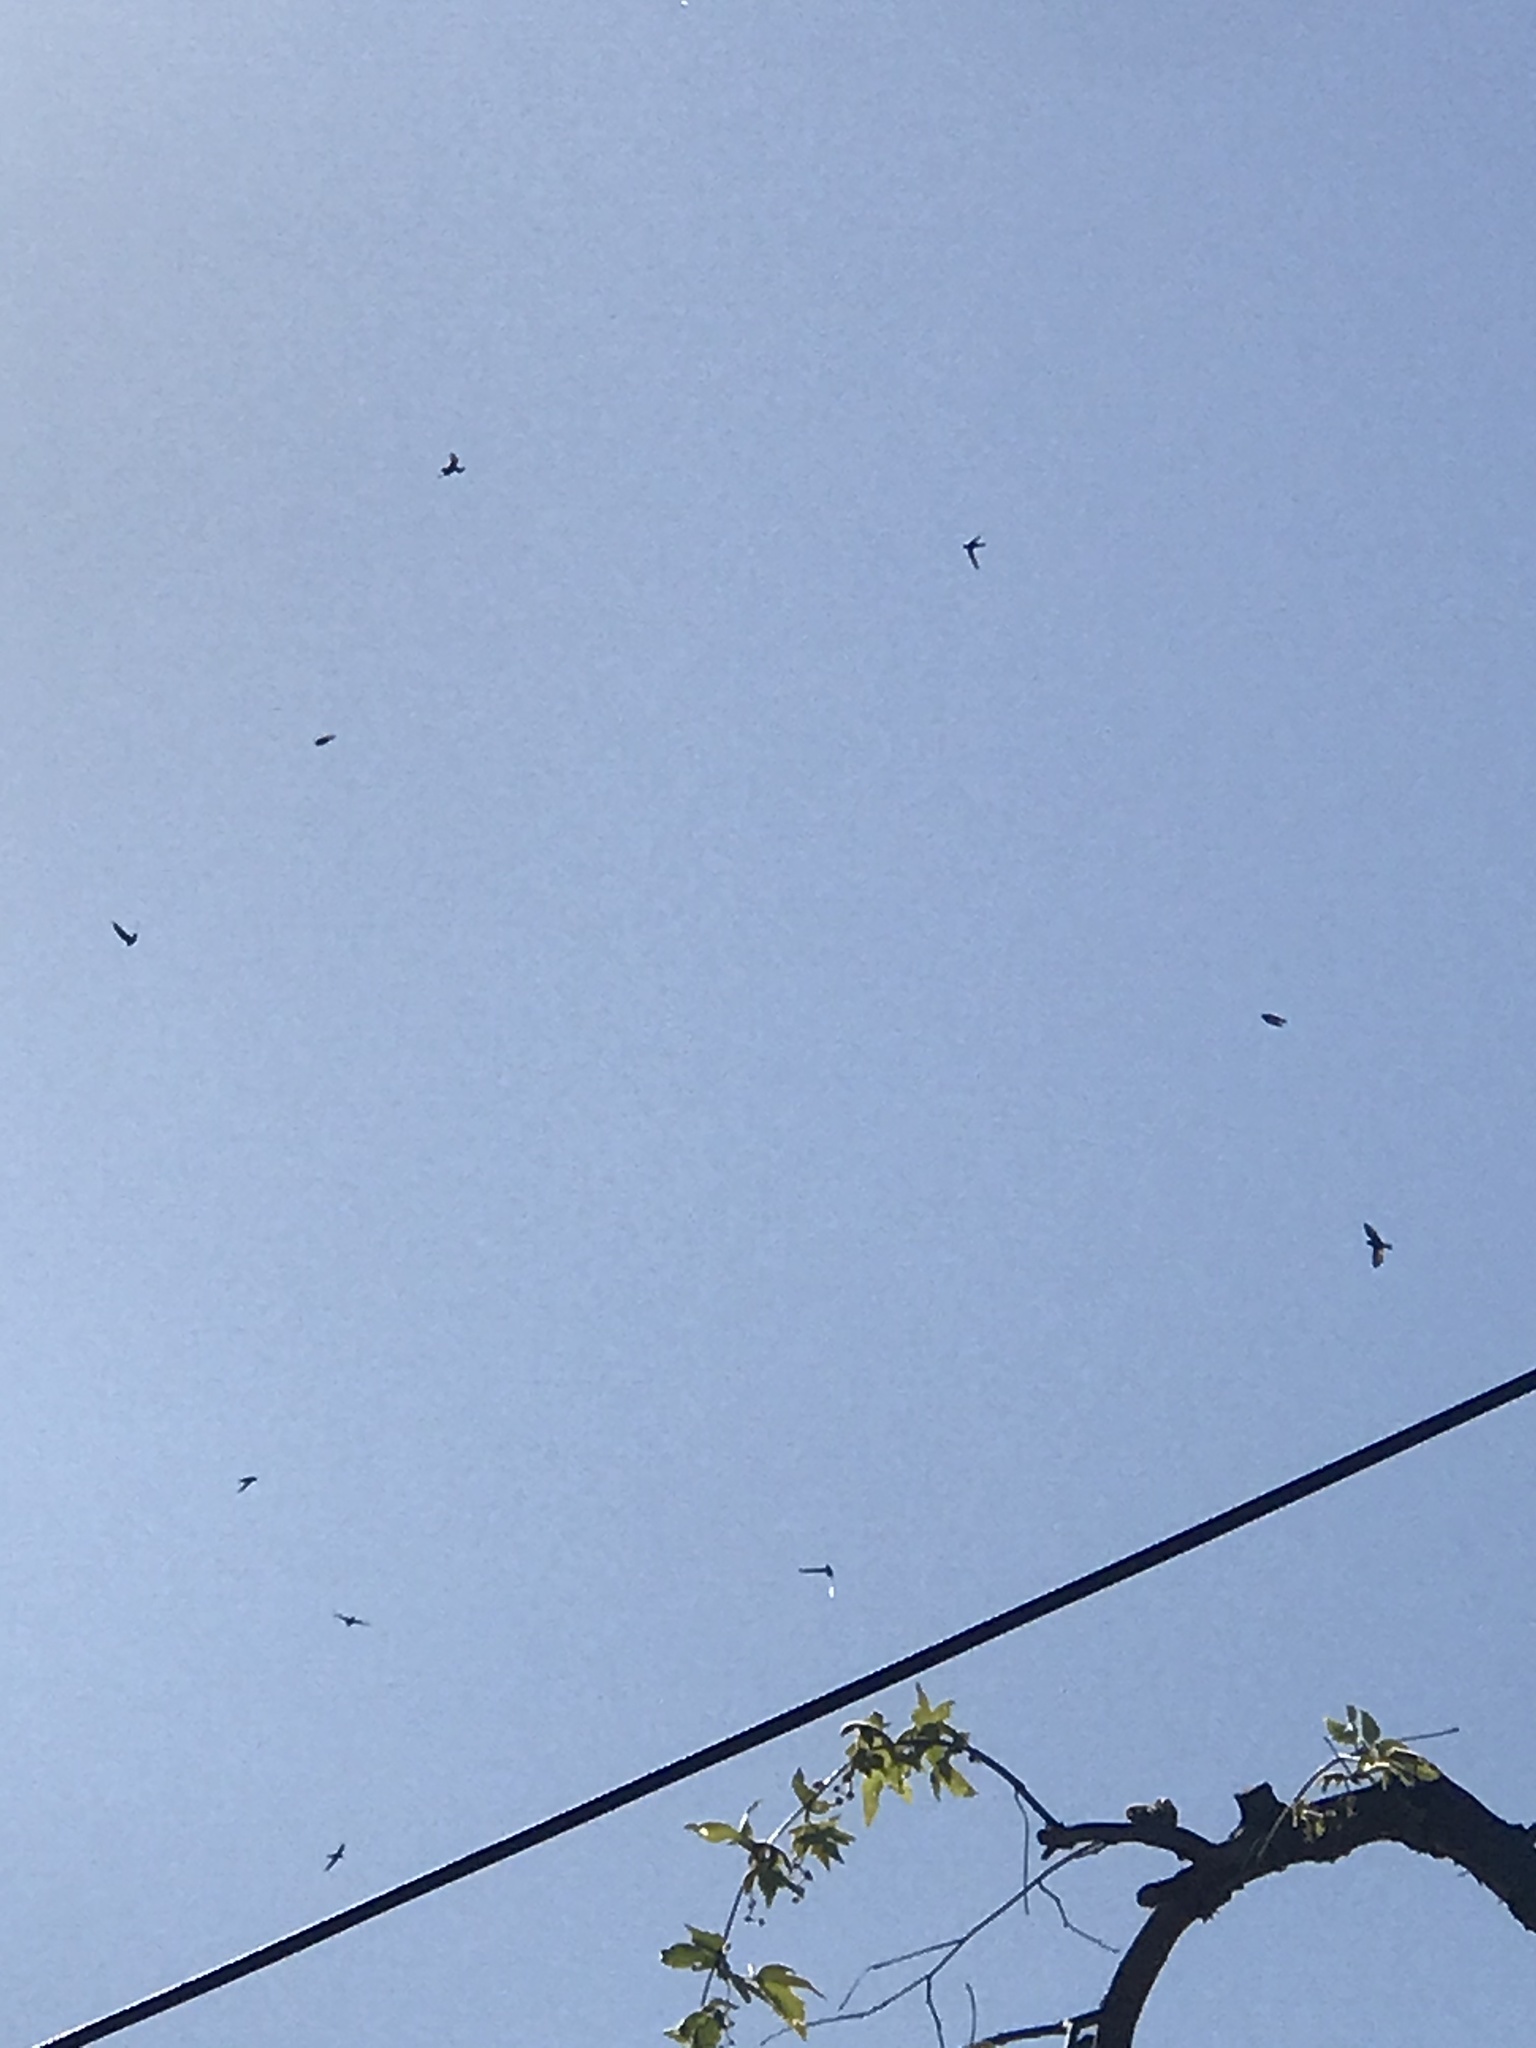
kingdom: Animalia
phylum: Chordata
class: Aves
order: Apodiformes
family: Apodidae
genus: Aeronautes
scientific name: Aeronautes saxatalis
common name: White-throated swift
